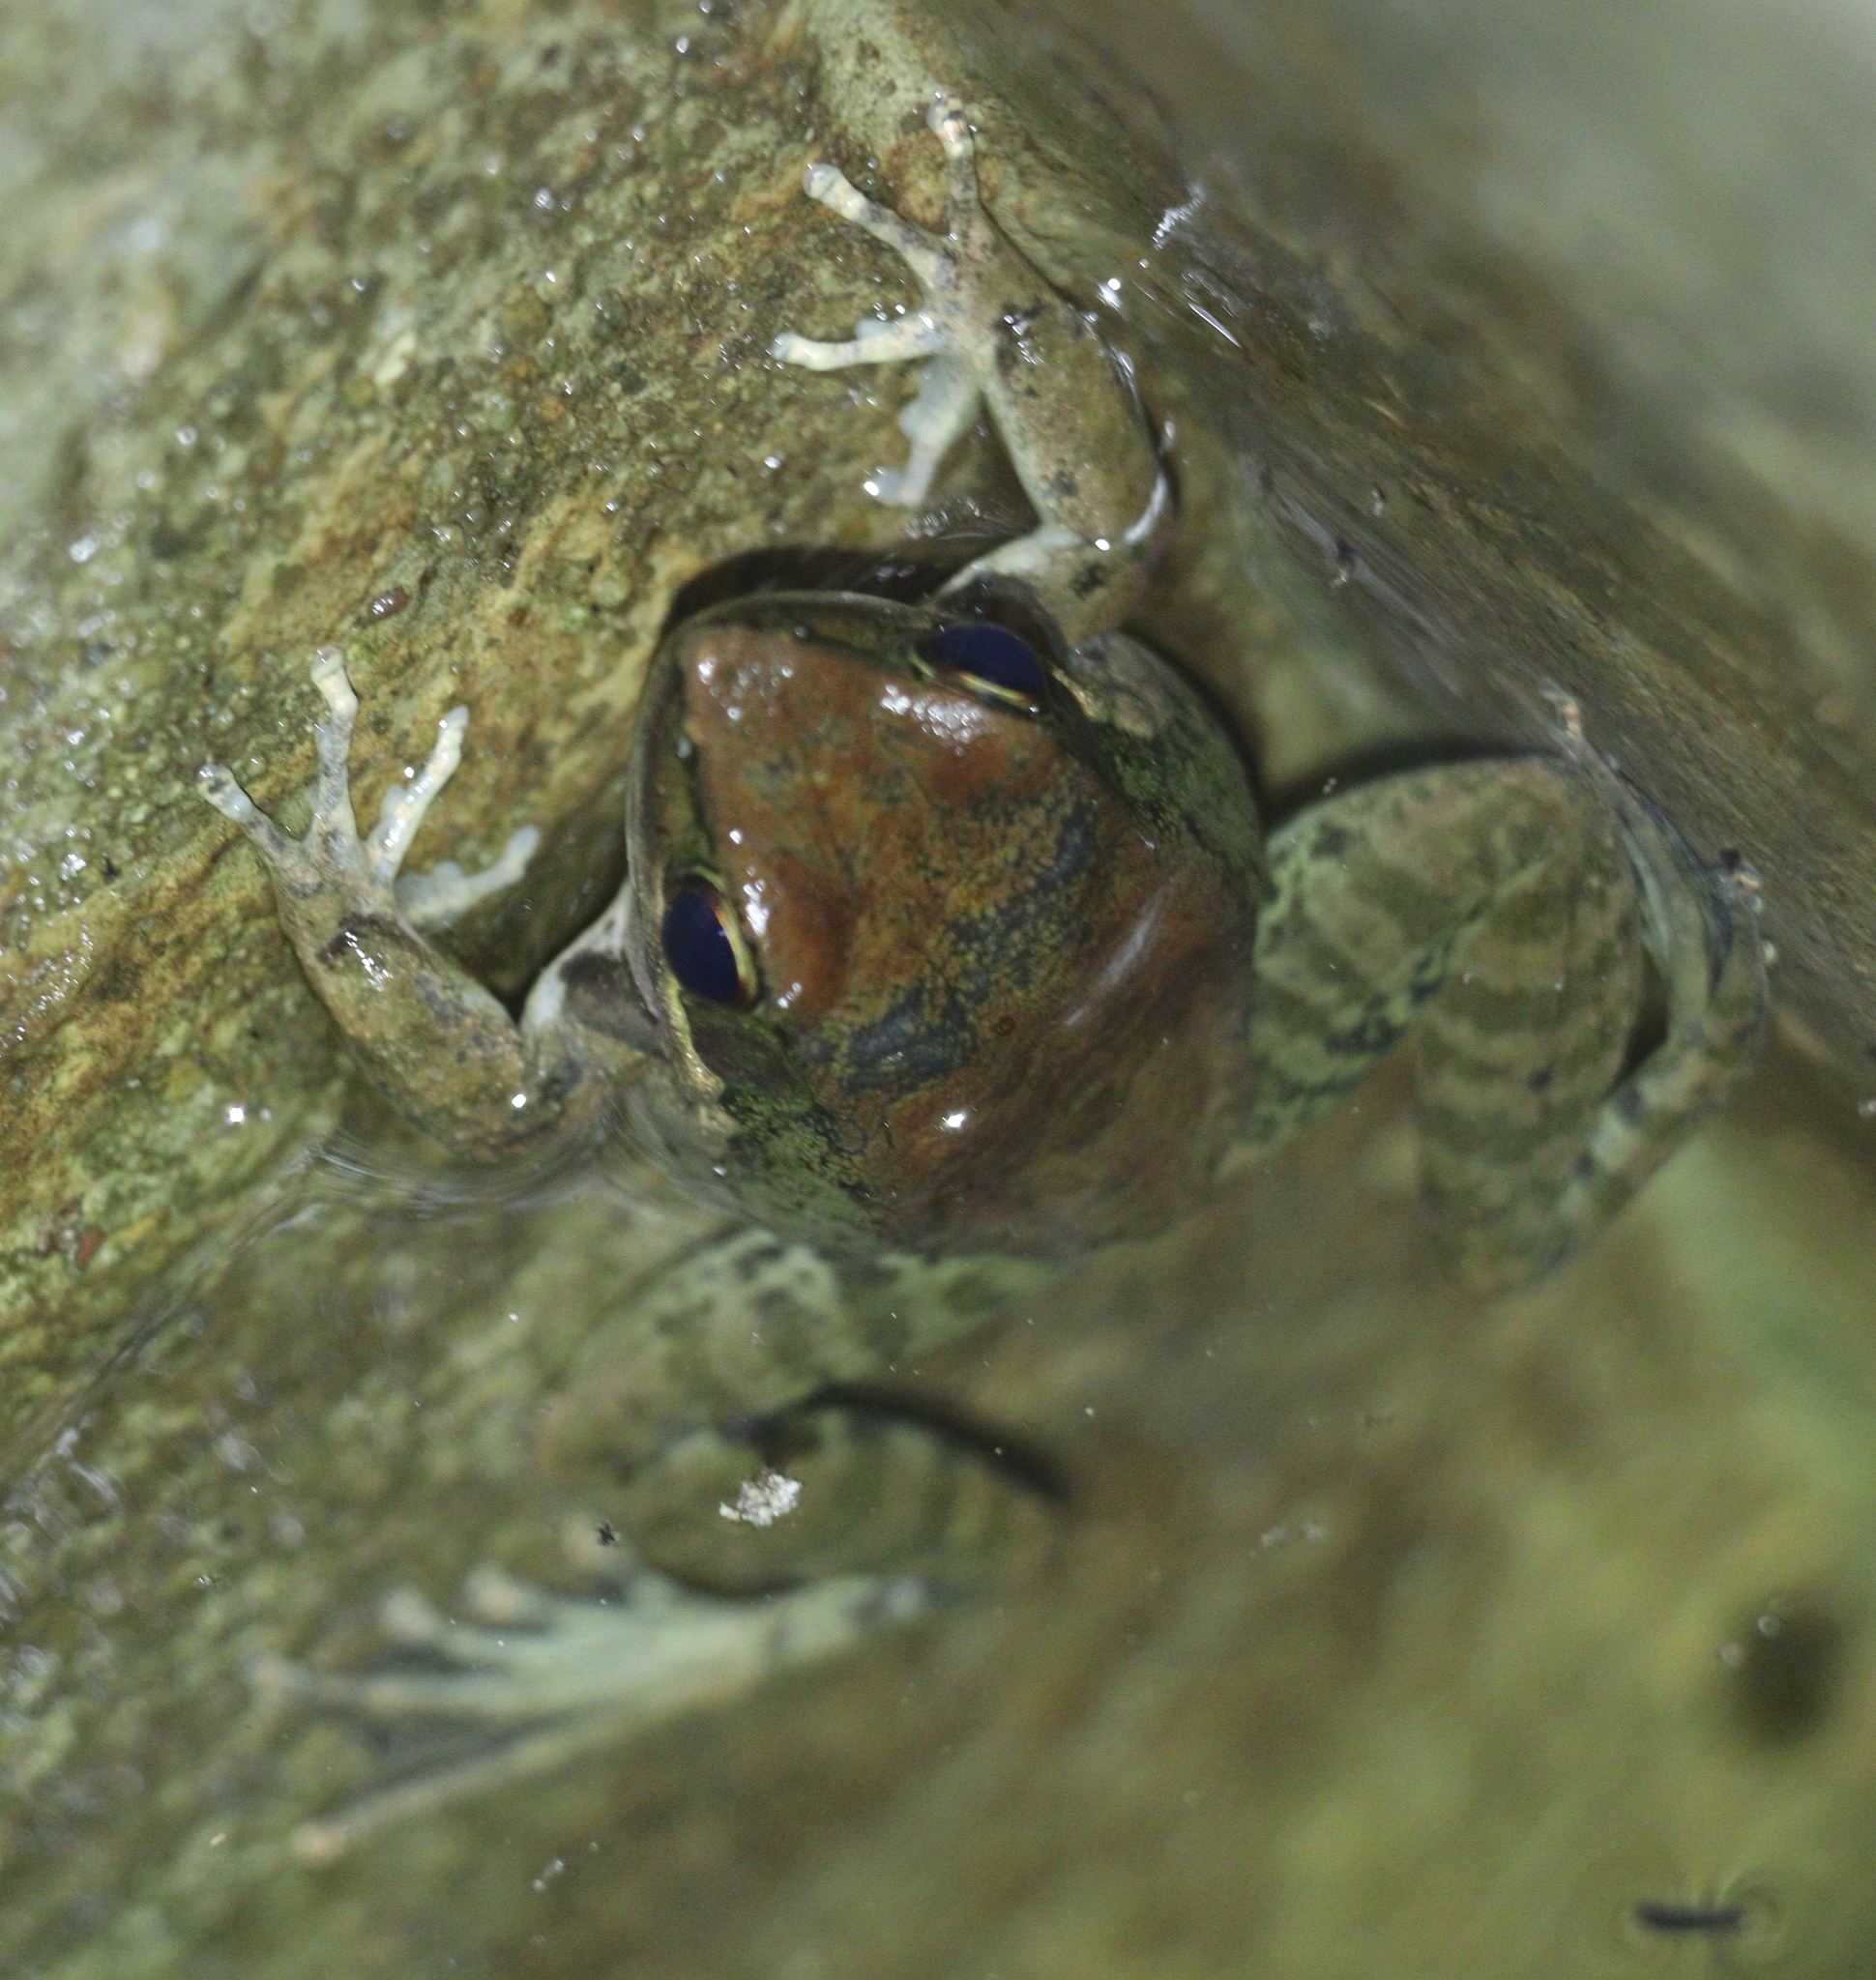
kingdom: Animalia
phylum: Chordata
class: Amphibia
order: Anura
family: Ranidae
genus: Sylvirana
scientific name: Sylvirana nigrovittata
